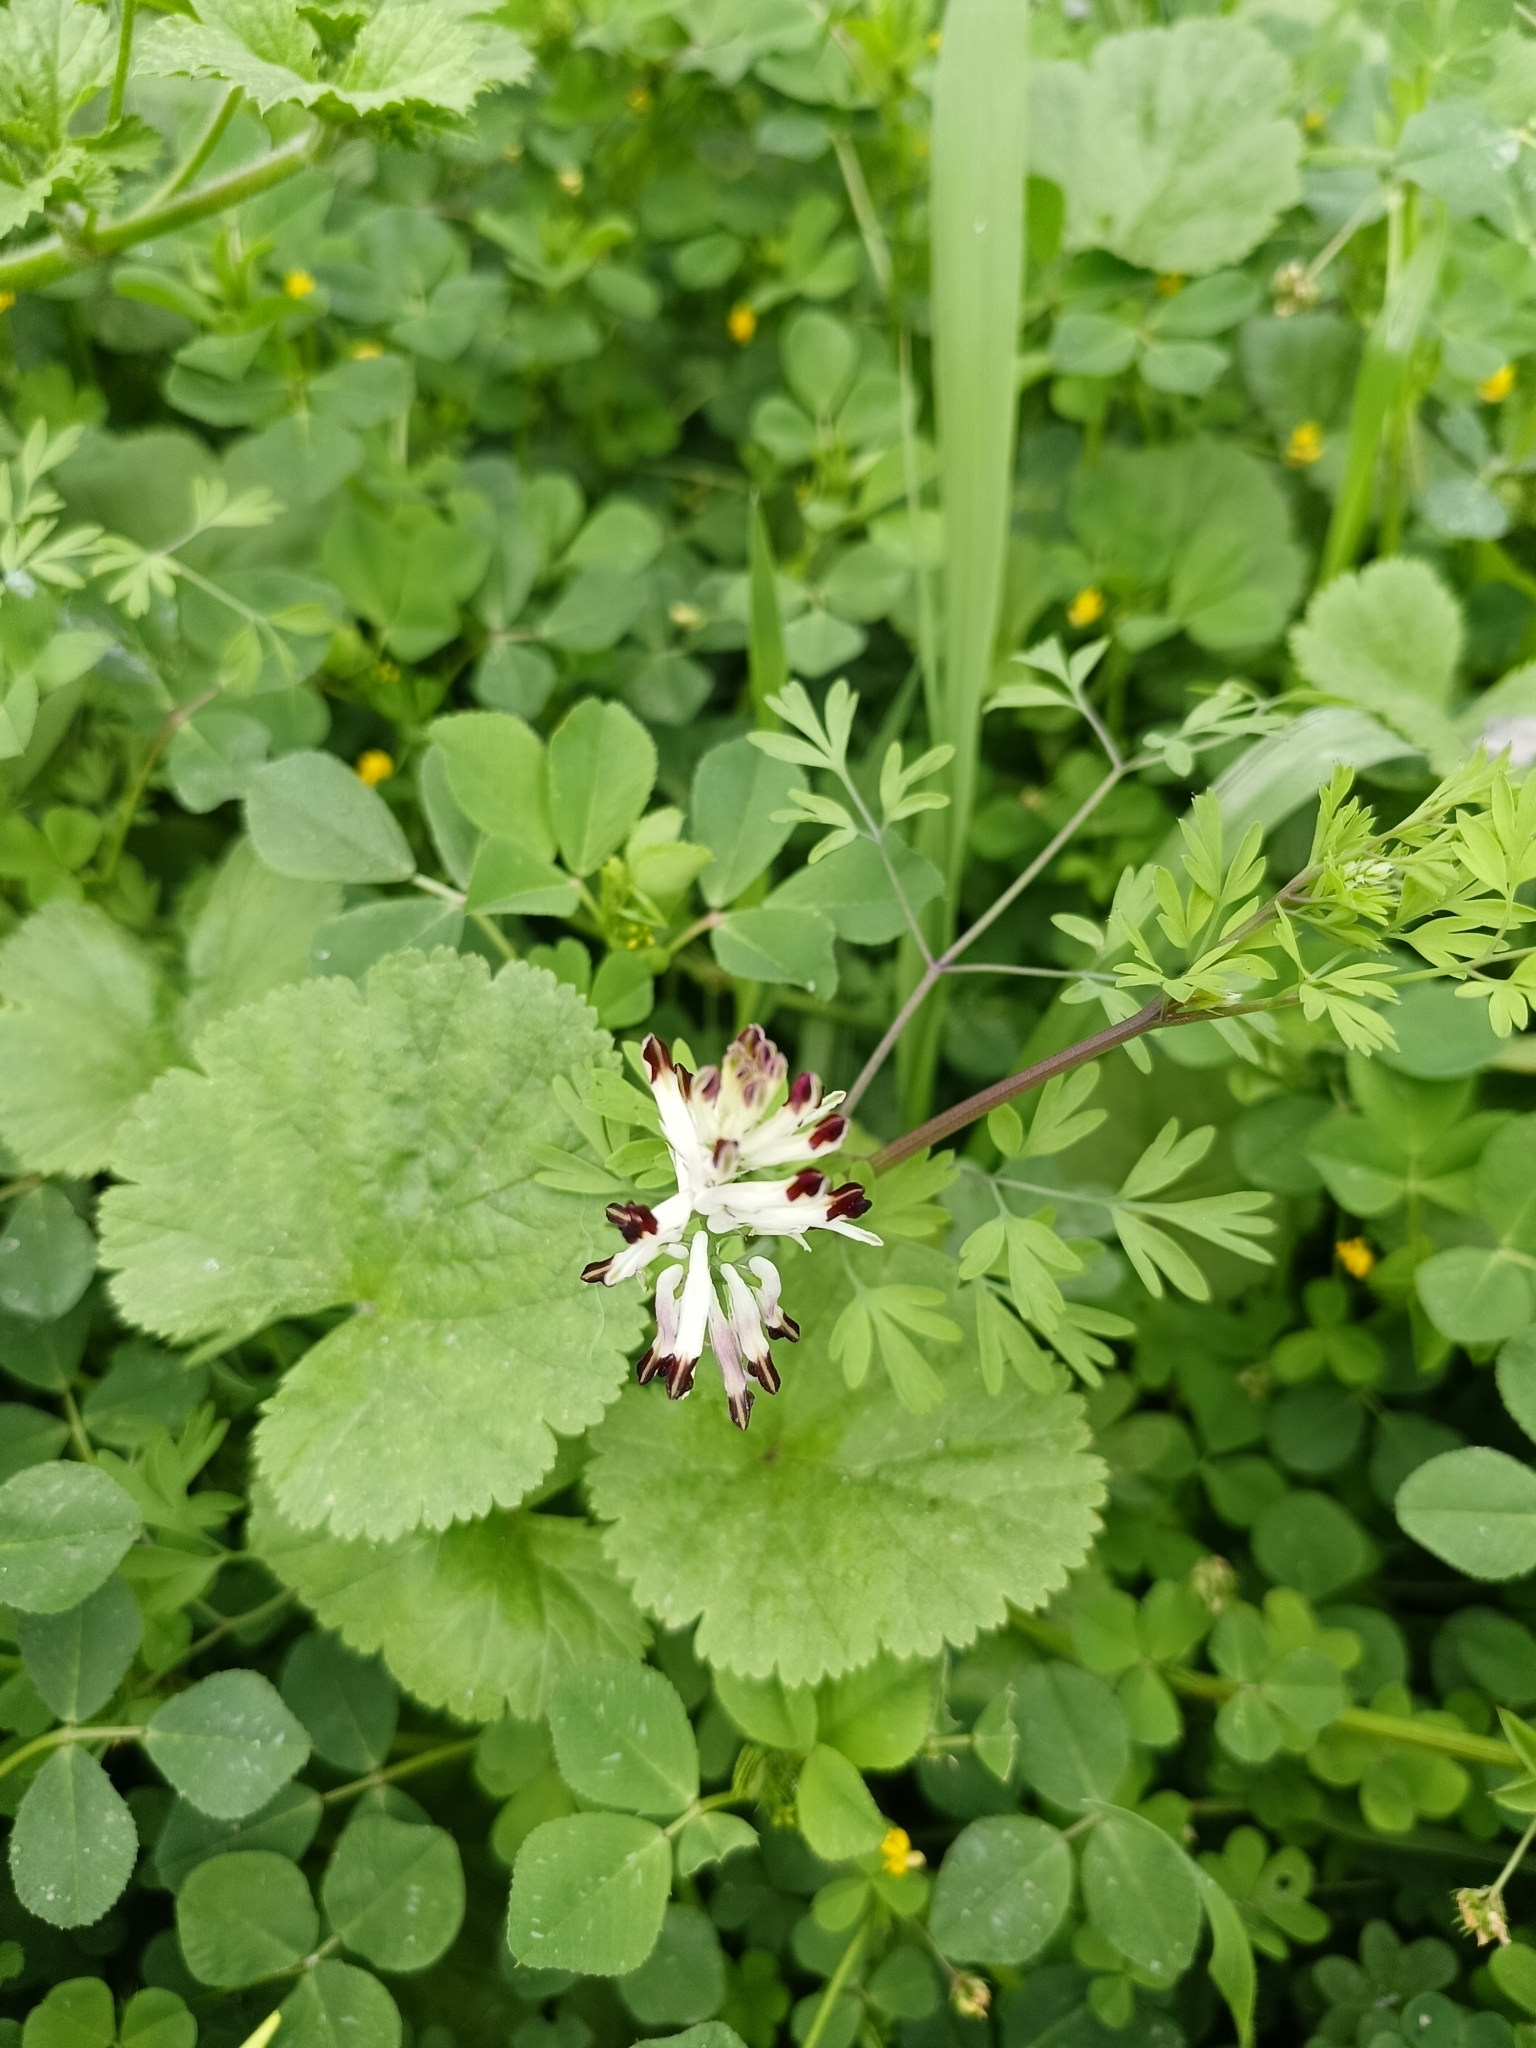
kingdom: Plantae
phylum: Tracheophyta
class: Magnoliopsida
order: Ranunculales
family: Papaveraceae
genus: Fumaria
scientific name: Fumaria capreolata
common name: White ramping-fumitory
